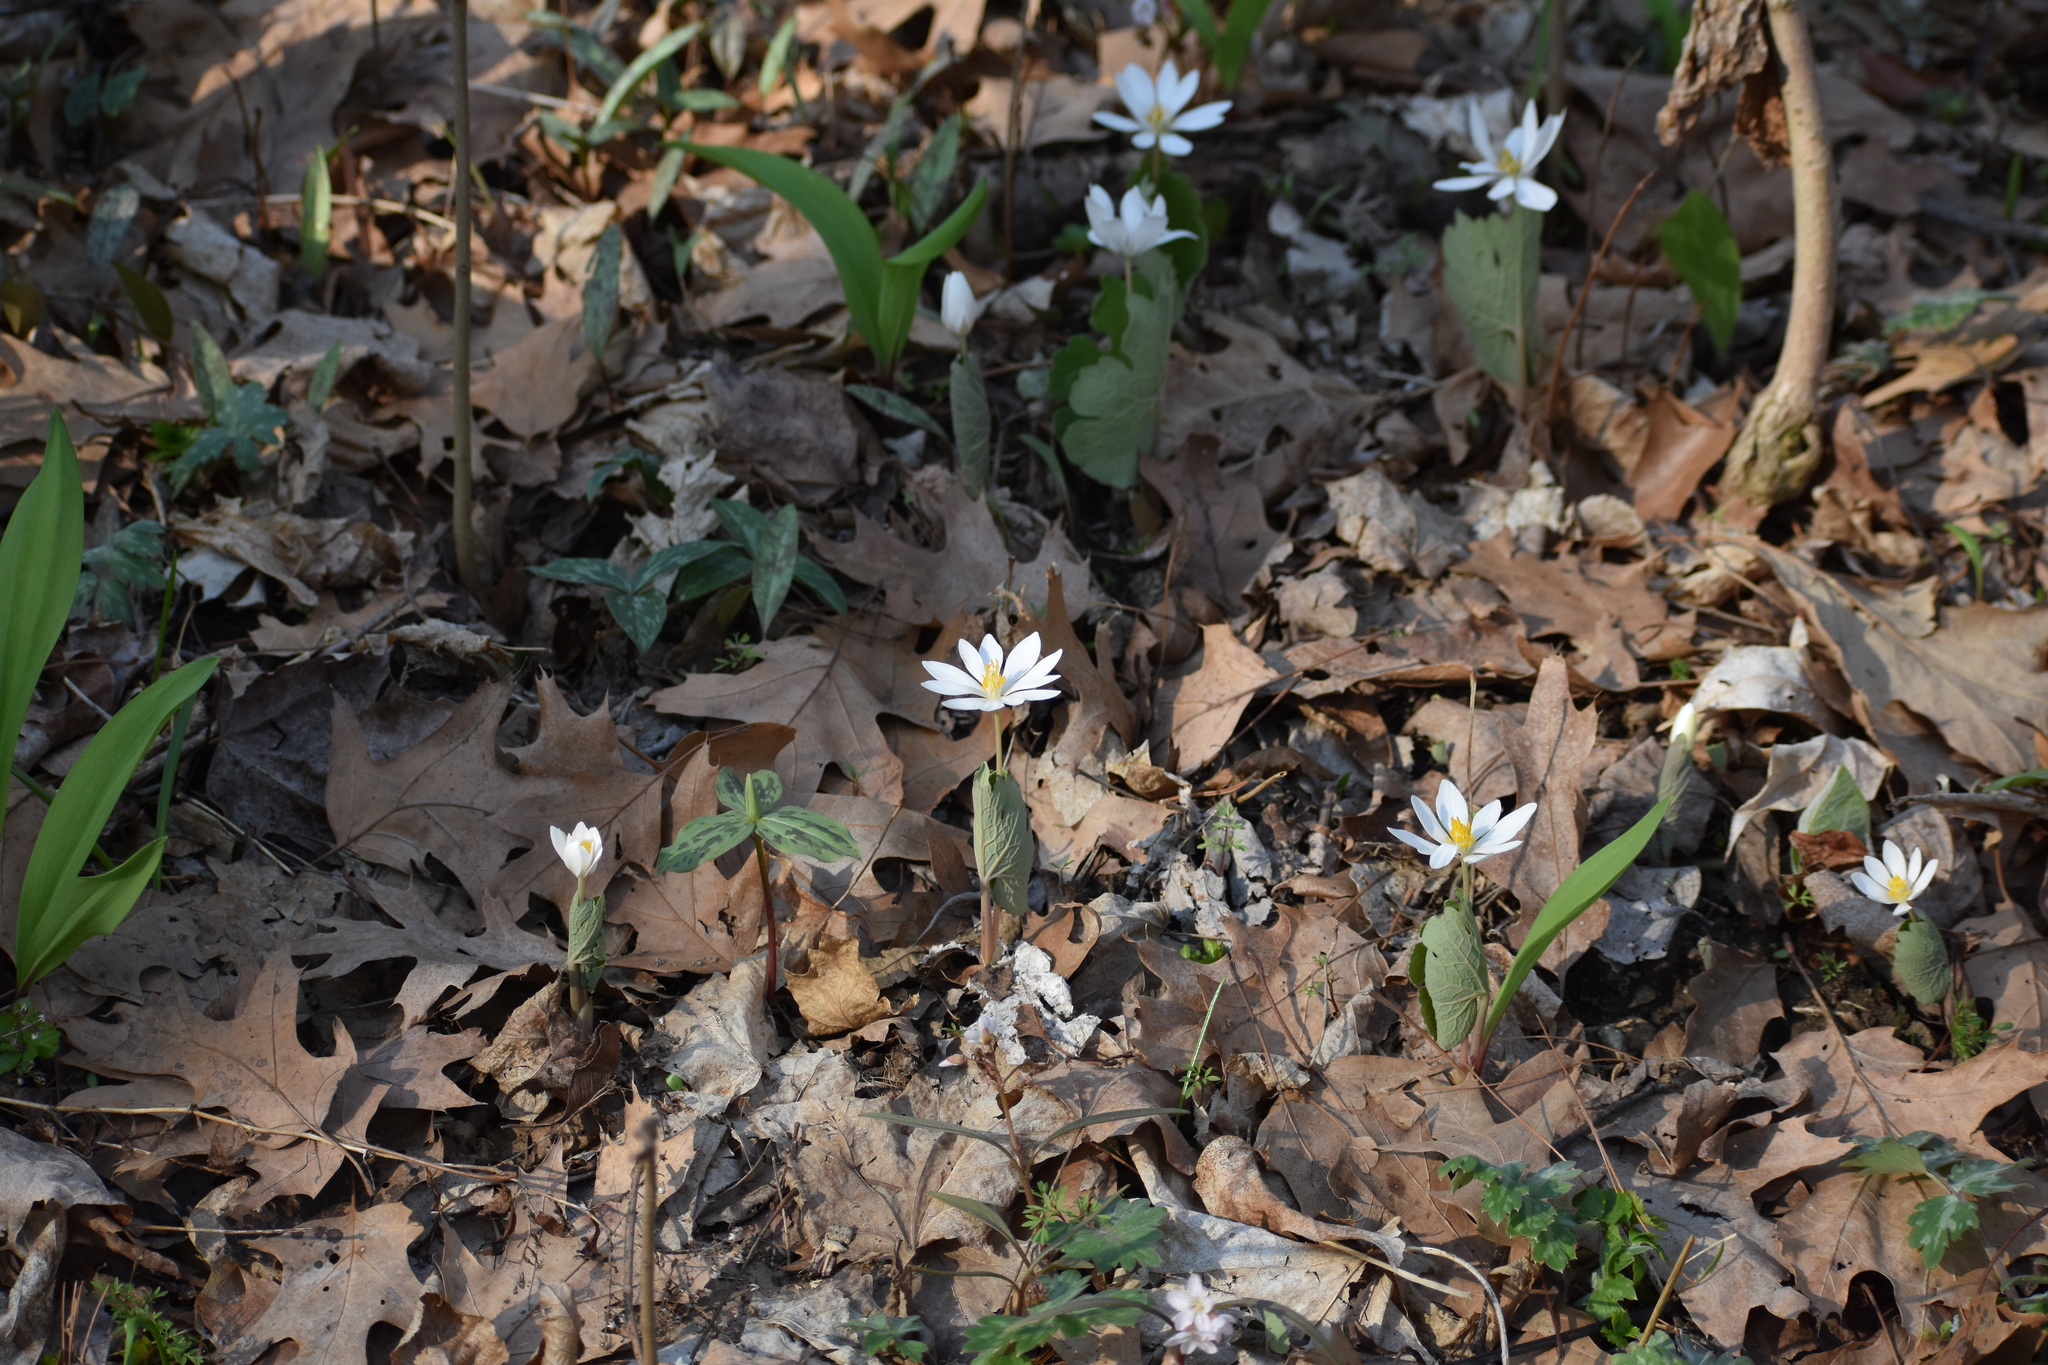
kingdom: Plantae
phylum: Tracheophyta
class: Magnoliopsida
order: Ranunculales
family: Papaveraceae
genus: Sanguinaria
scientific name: Sanguinaria canadensis
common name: Bloodroot
